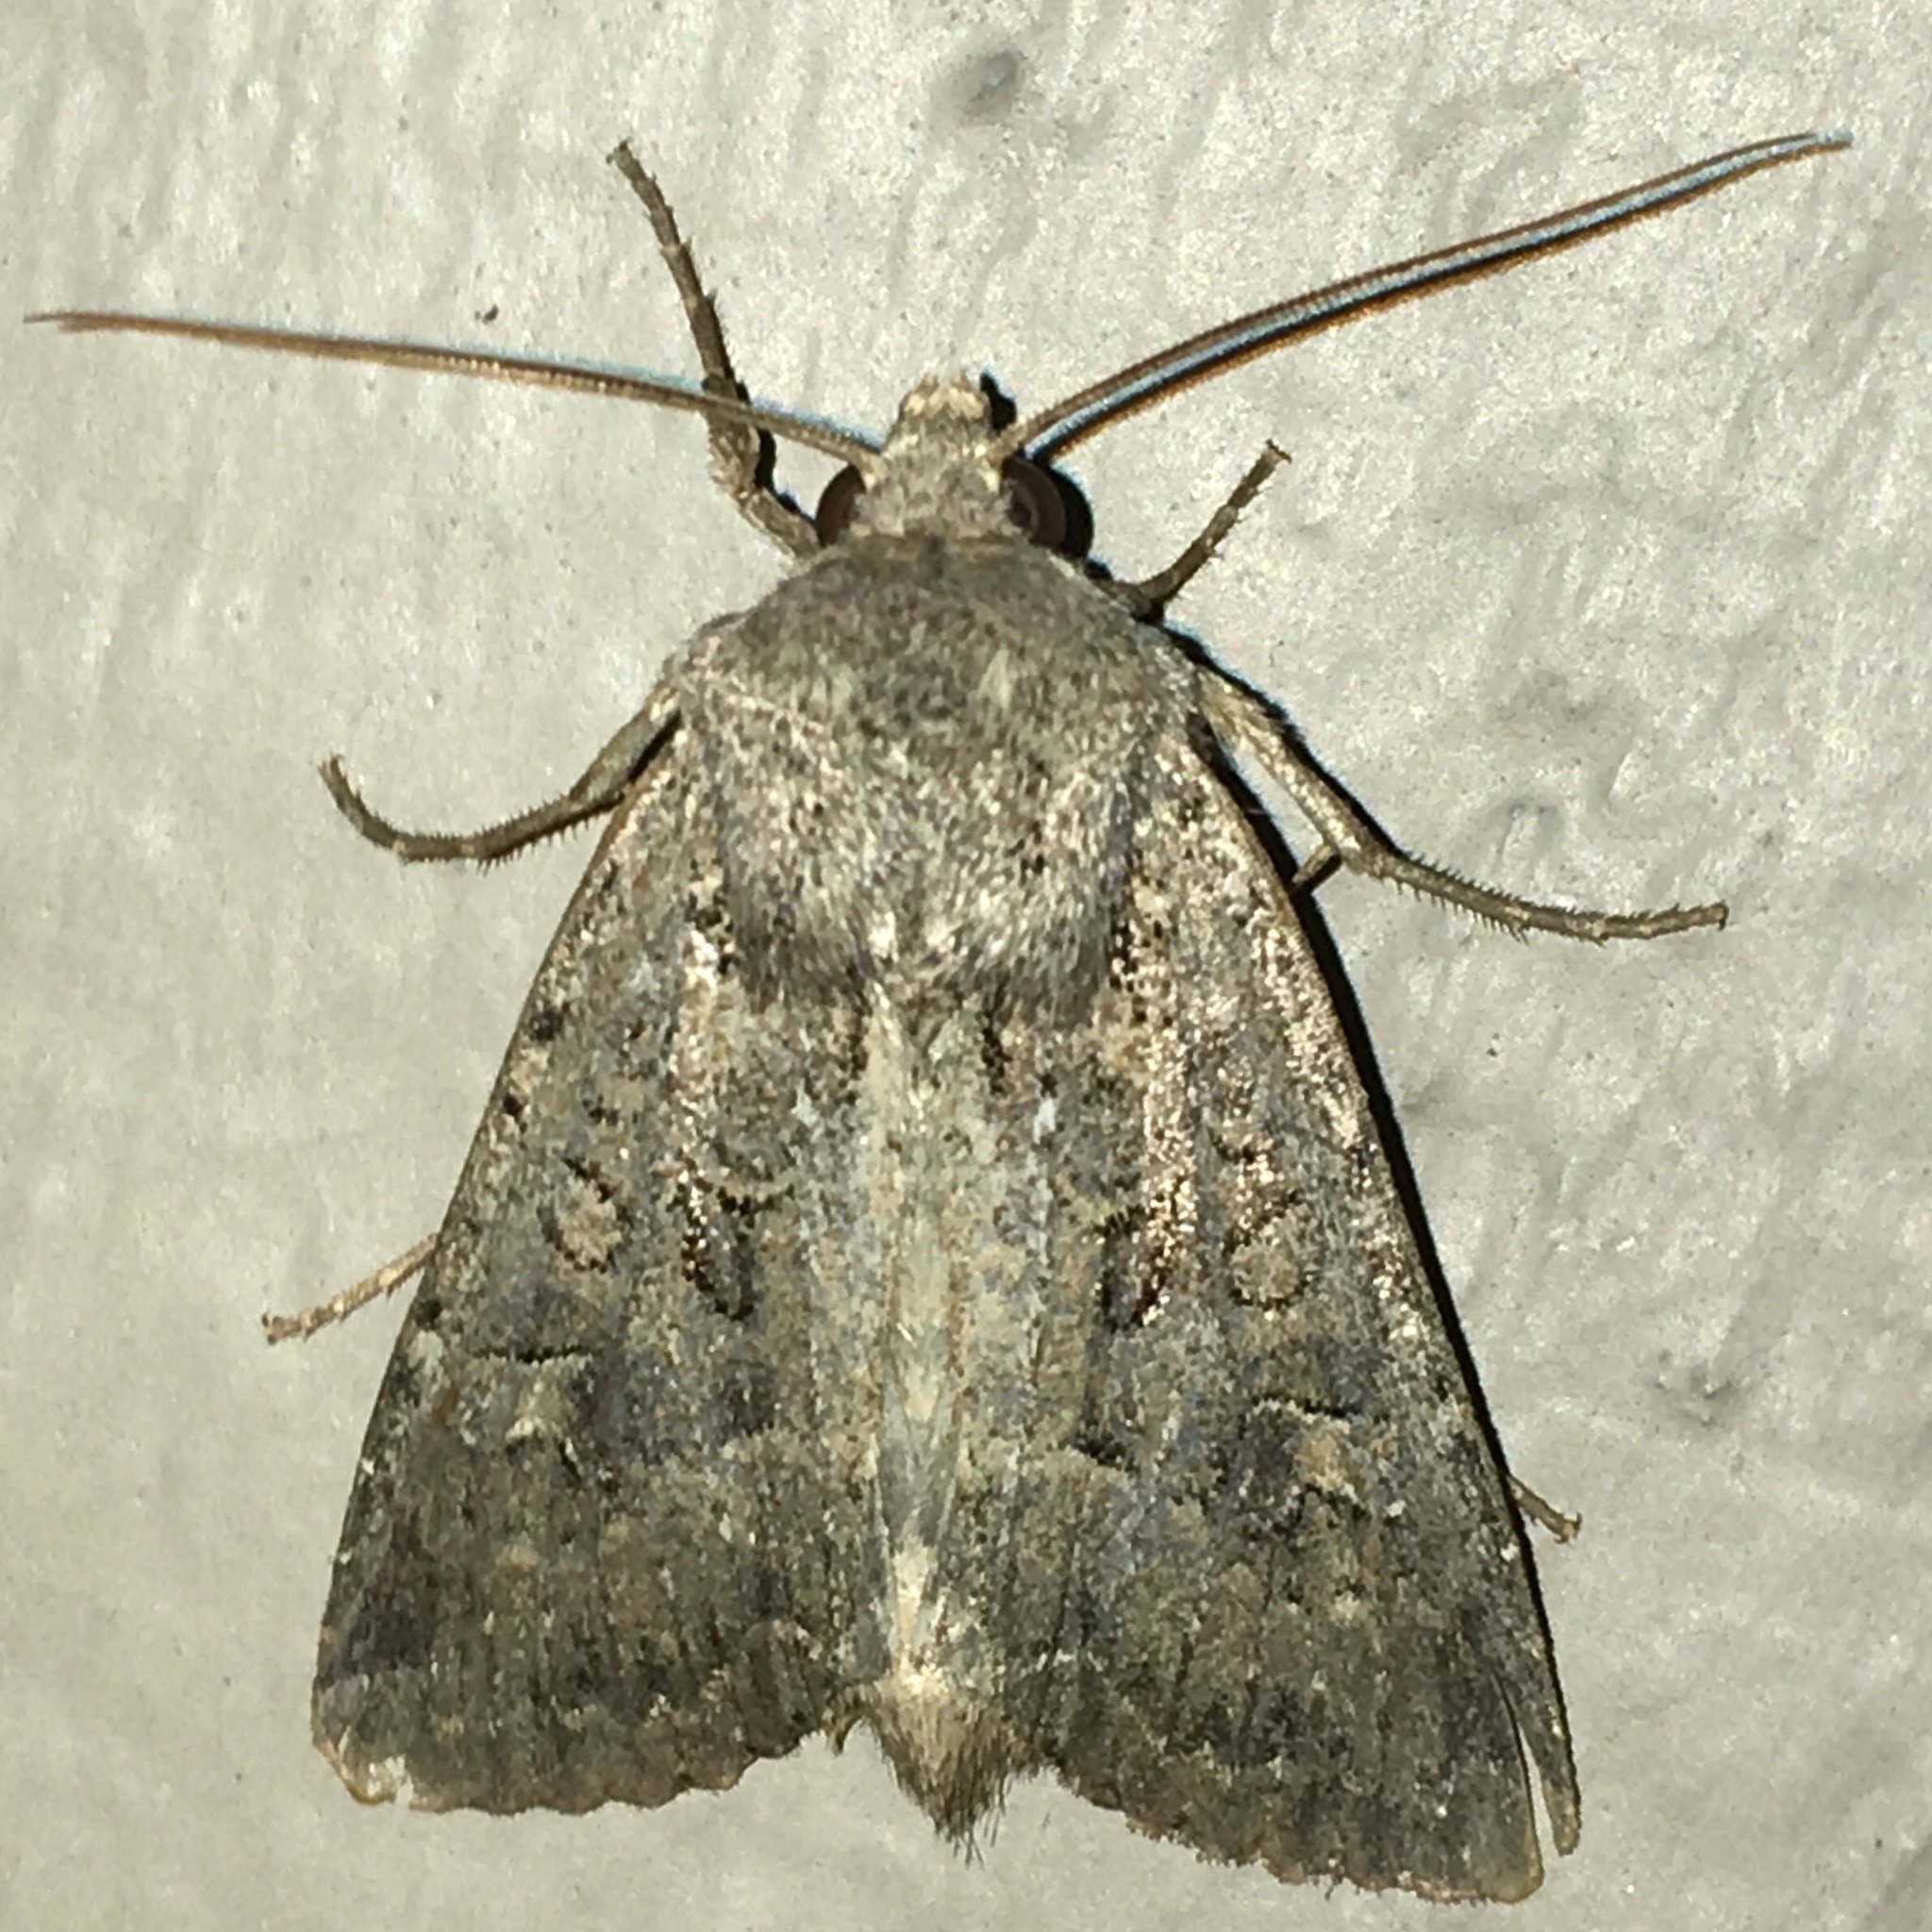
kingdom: Animalia
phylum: Arthropoda
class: Insecta
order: Lepidoptera
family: Noctuidae
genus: Apamea
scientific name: Apamea devastator
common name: Glassy cutworm
